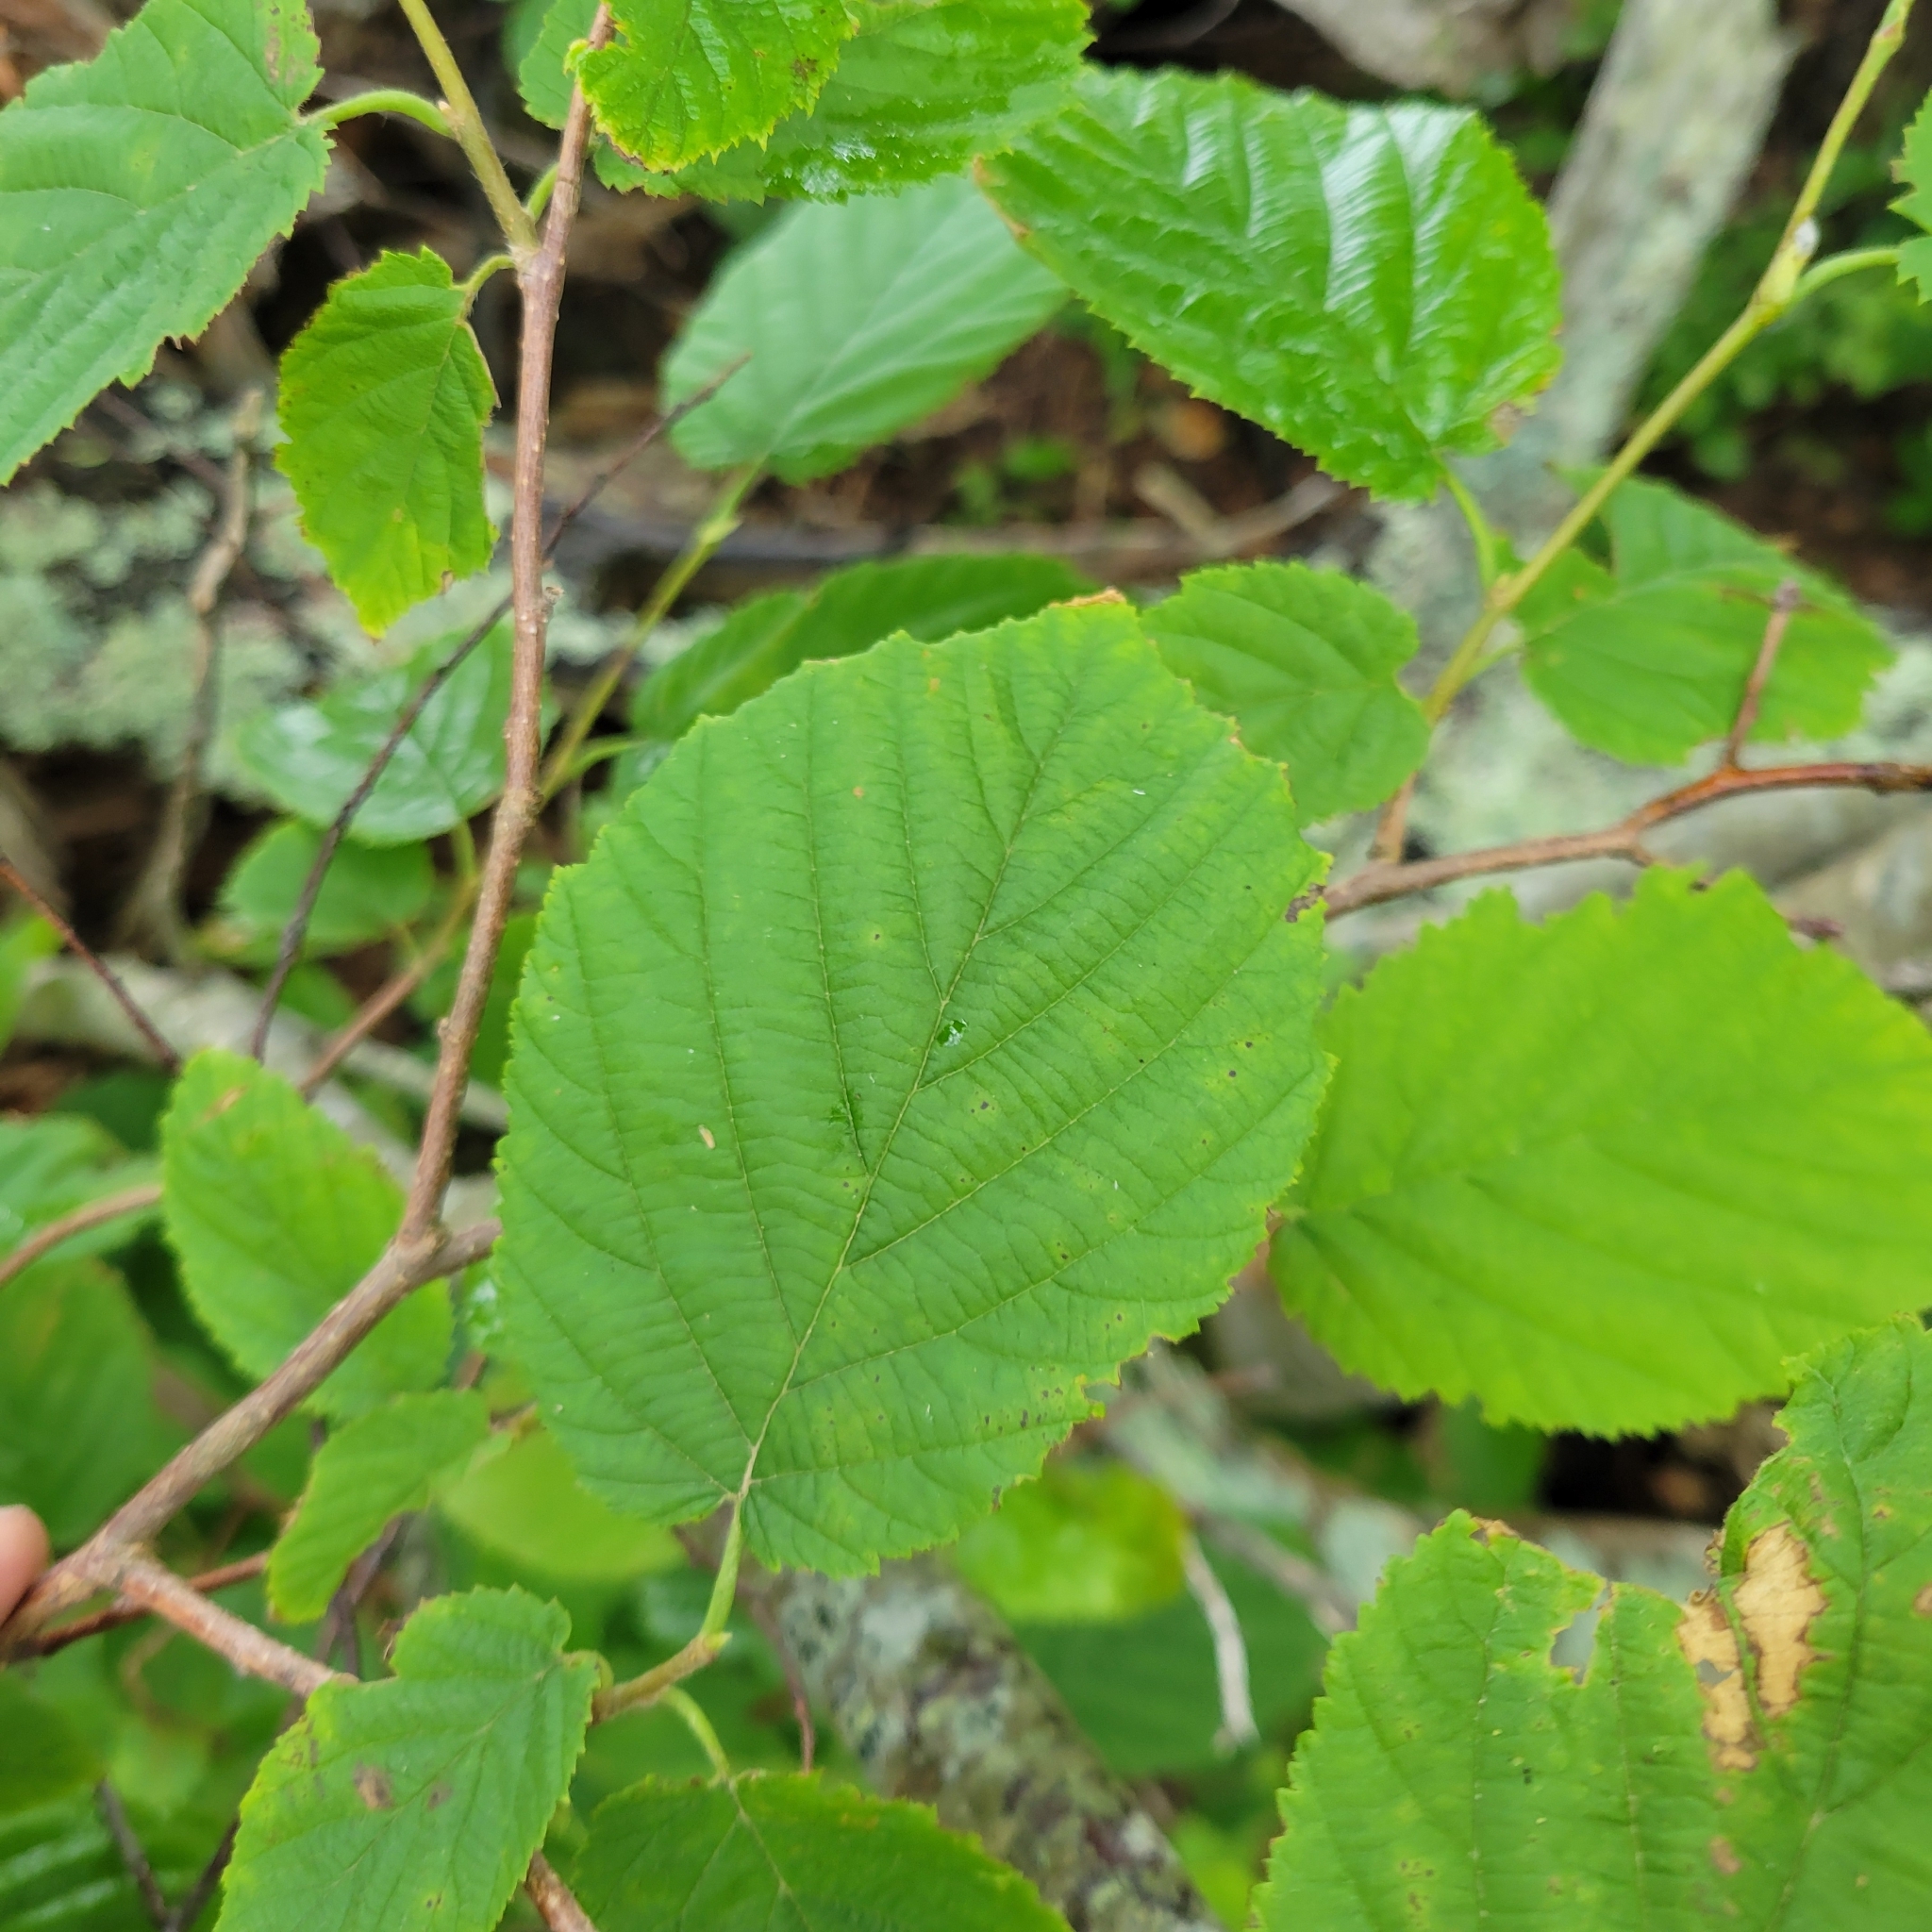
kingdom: Plantae
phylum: Tracheophyta
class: Magnoliopsida
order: Fagales
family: Betulaceae
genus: Corylus
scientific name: Corylus cornuta
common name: Beaked hazel
